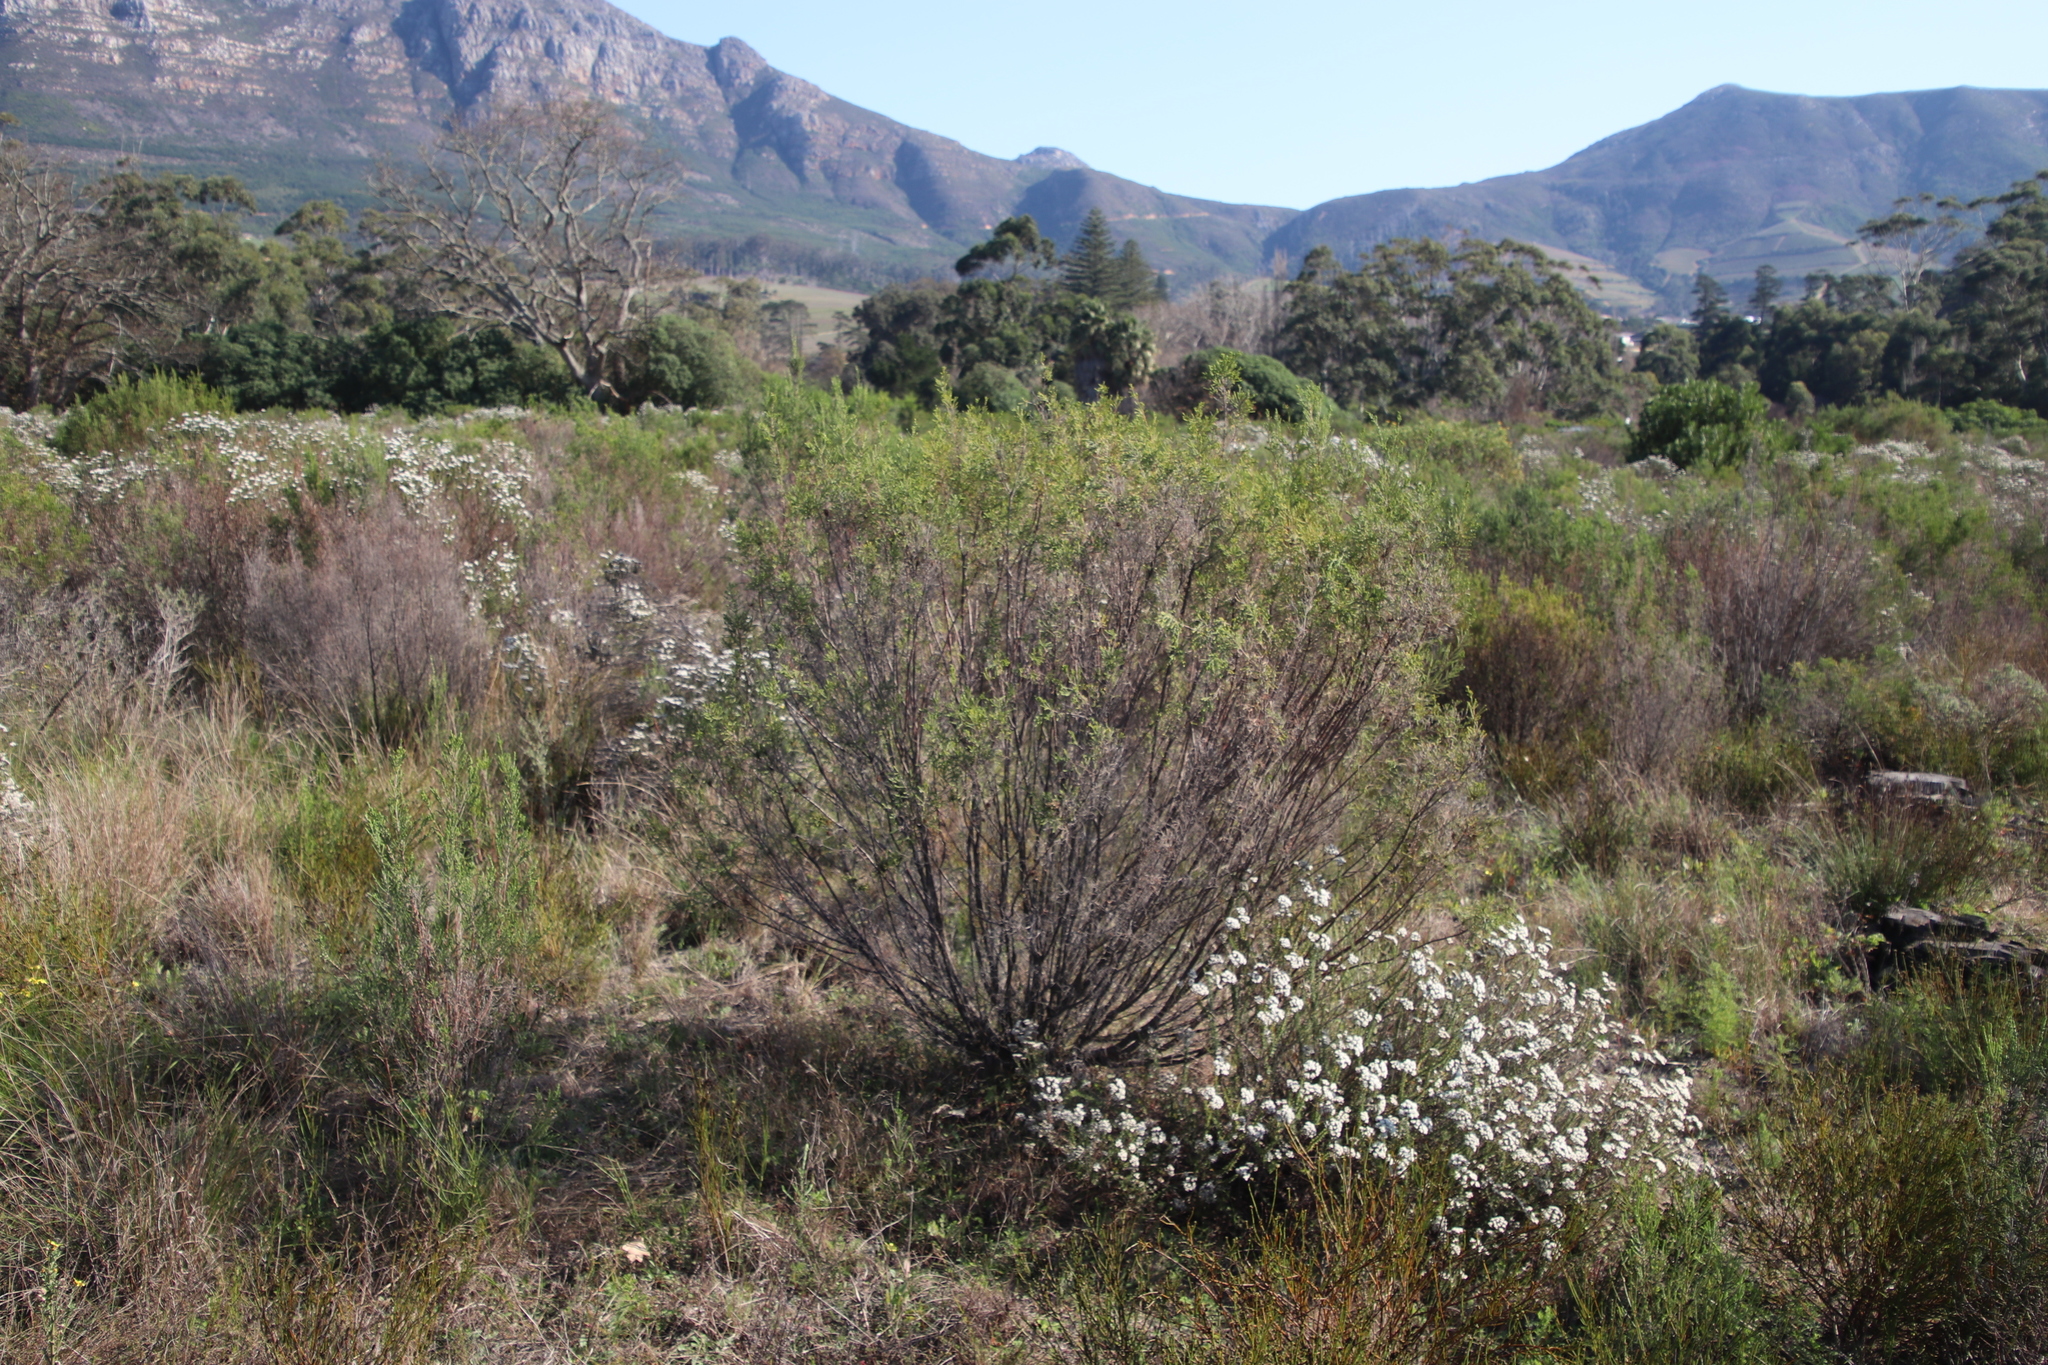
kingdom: Plantae
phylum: Tracheophyta
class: Magnoliopsida
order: Malvales
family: Thymelaeaceae
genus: Passerina
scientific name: Passerina corymbosa
